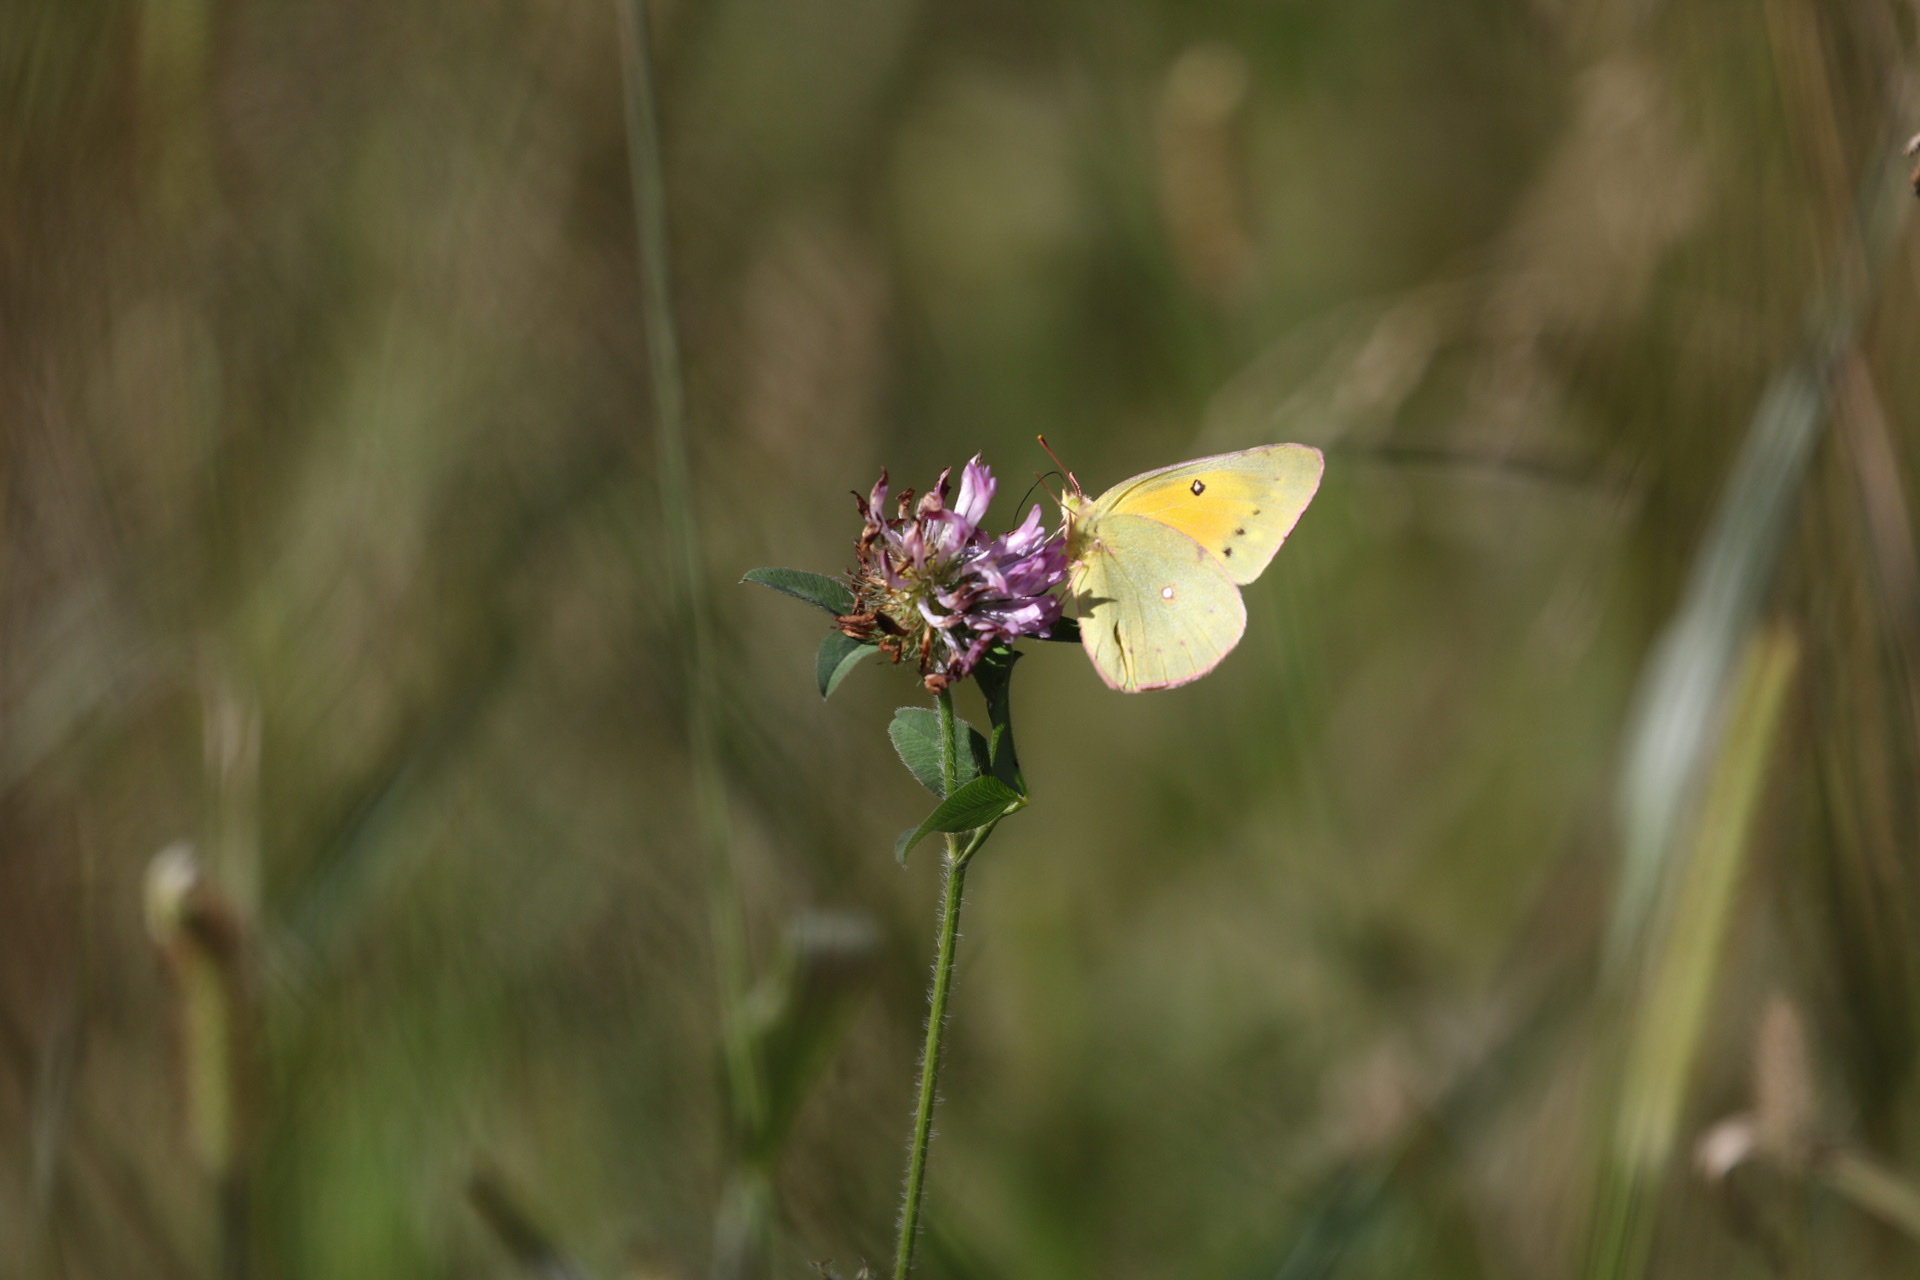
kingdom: Animalia
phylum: Arthropoda
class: Insecta
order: Lepidoptera
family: Pieridae
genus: Colias
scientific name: Colias eurytheme
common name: Alfalfa butterfly
